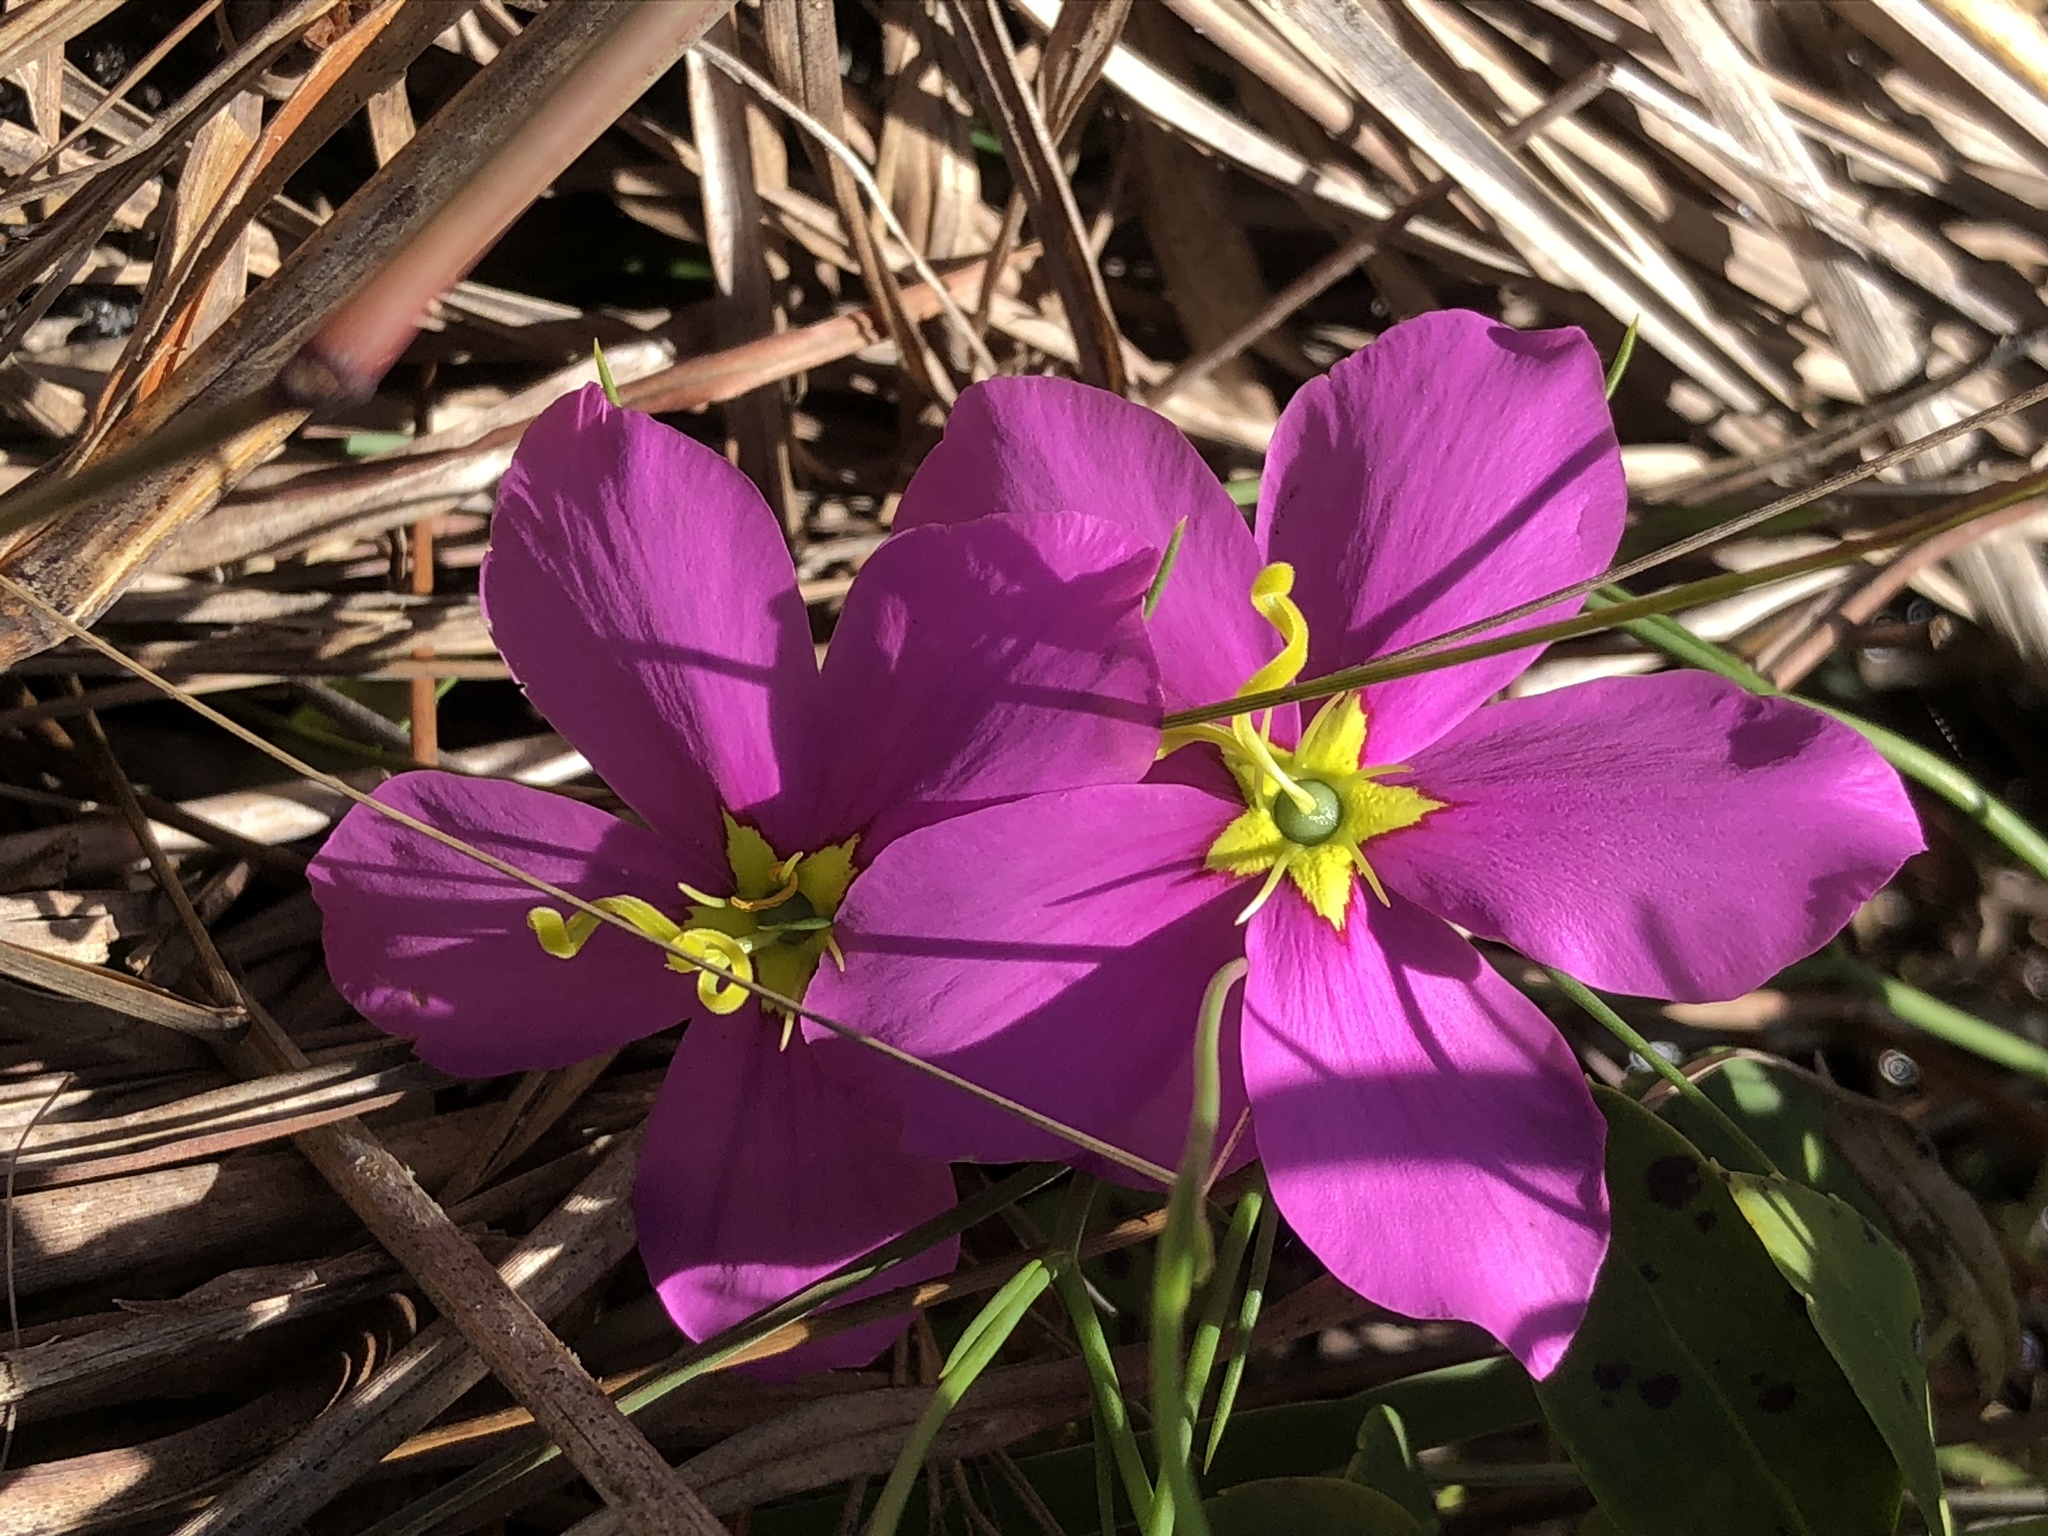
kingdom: Plantae
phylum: Tracheophyta
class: Magnoliopsida
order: Gentianales
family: Gentianaceae
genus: Sabatia
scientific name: Sabatia grandiflora
